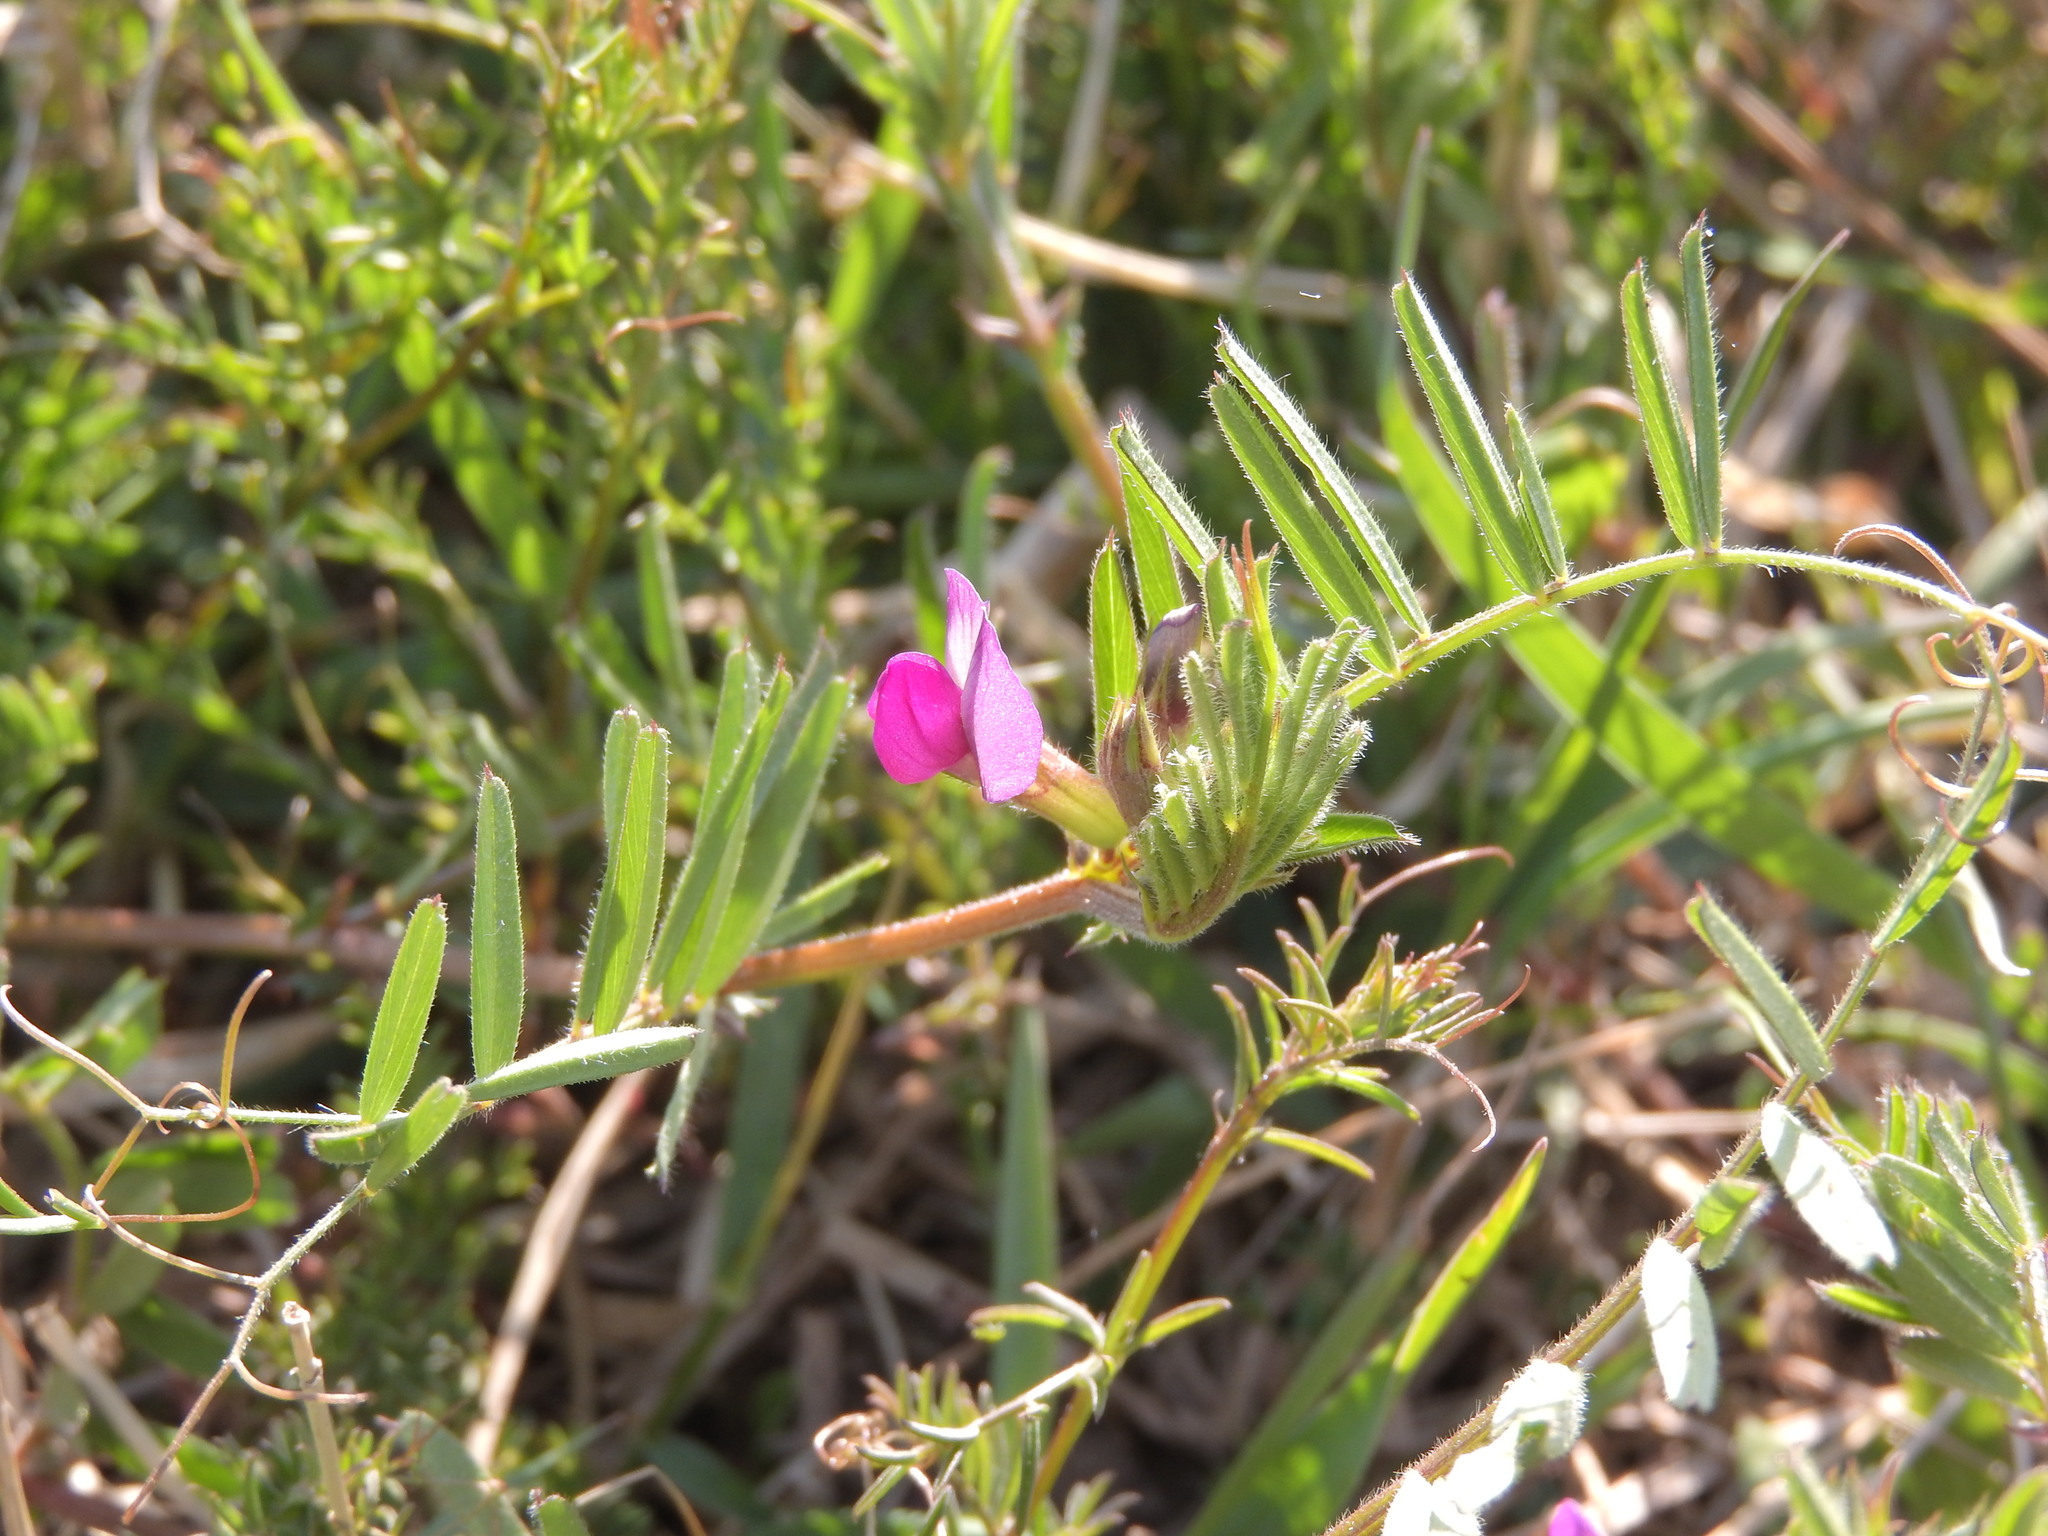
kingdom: Plantae
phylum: Tracheophyta
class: Magnoliopsida
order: Fabales
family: Fabaceae
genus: Vicia
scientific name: Vicia sativa
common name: Garden vetch
